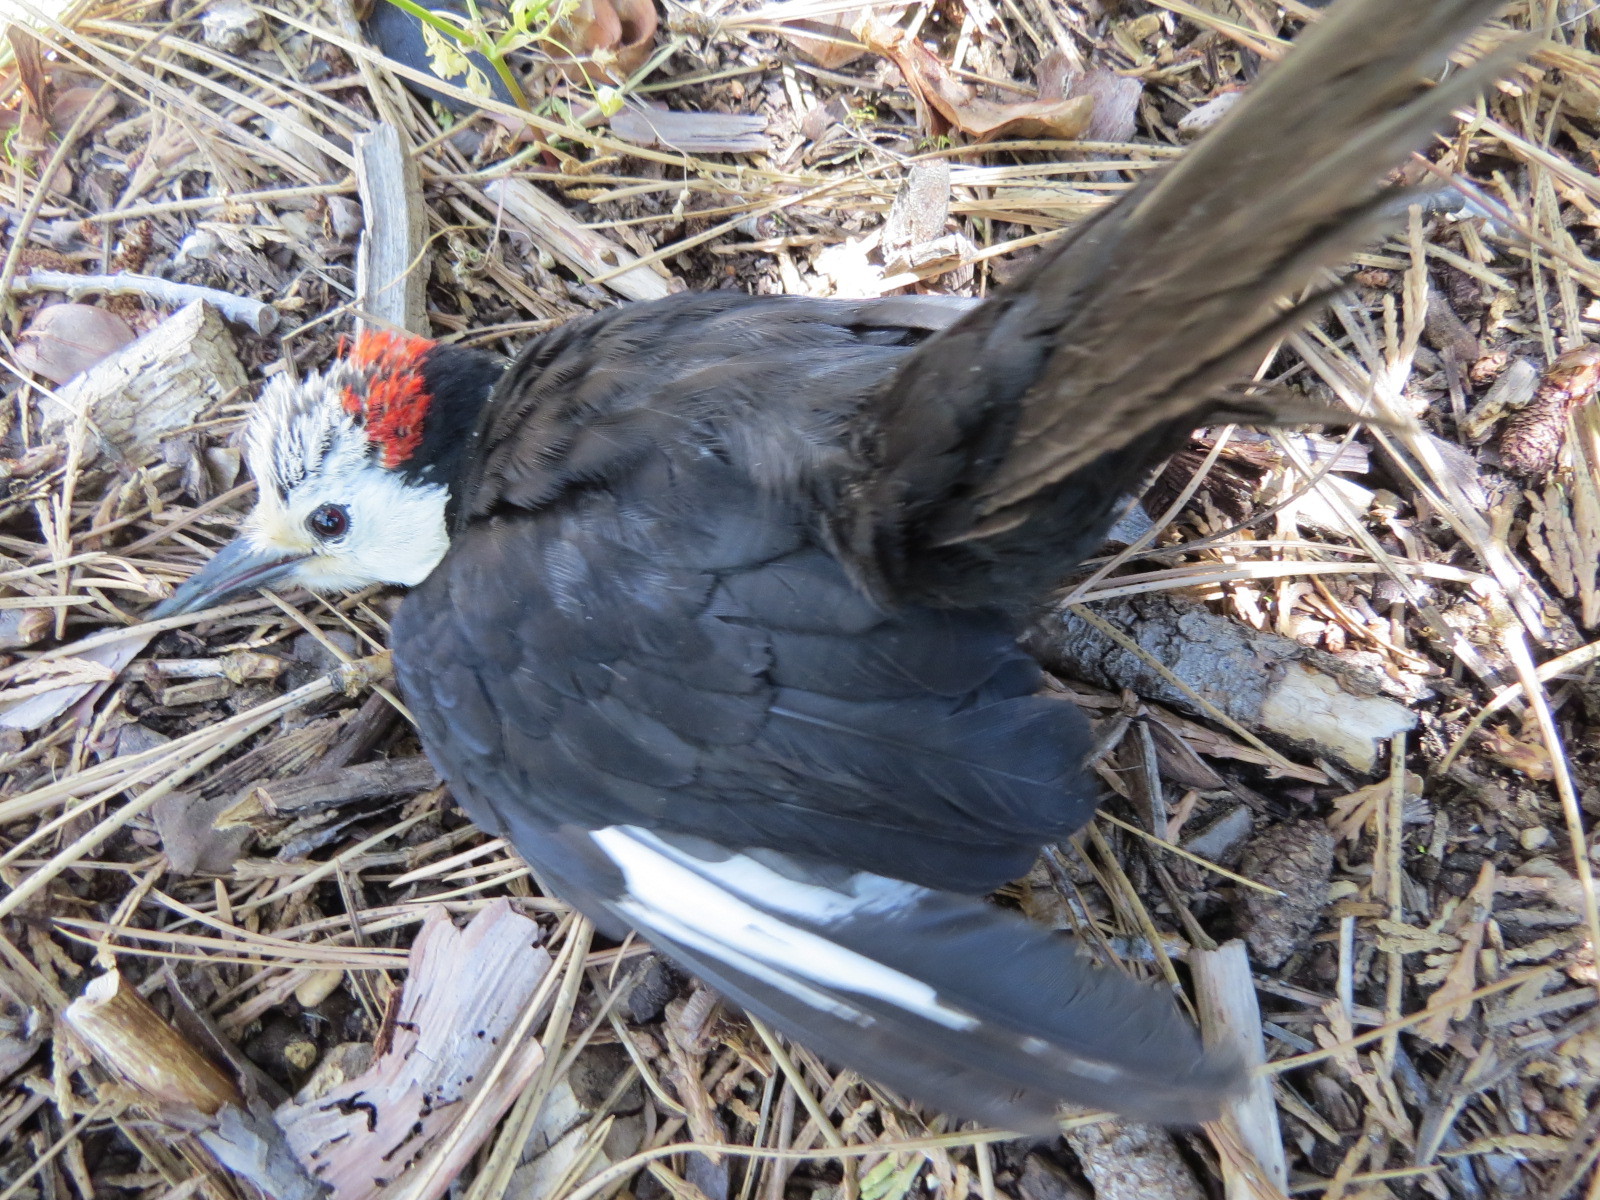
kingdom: Animalia
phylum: Chordata
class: Aves
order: Piciformes
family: Picidae
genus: Leuconotopicus
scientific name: Leuconotopicus albolarvatus
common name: White-headed woodpecker
